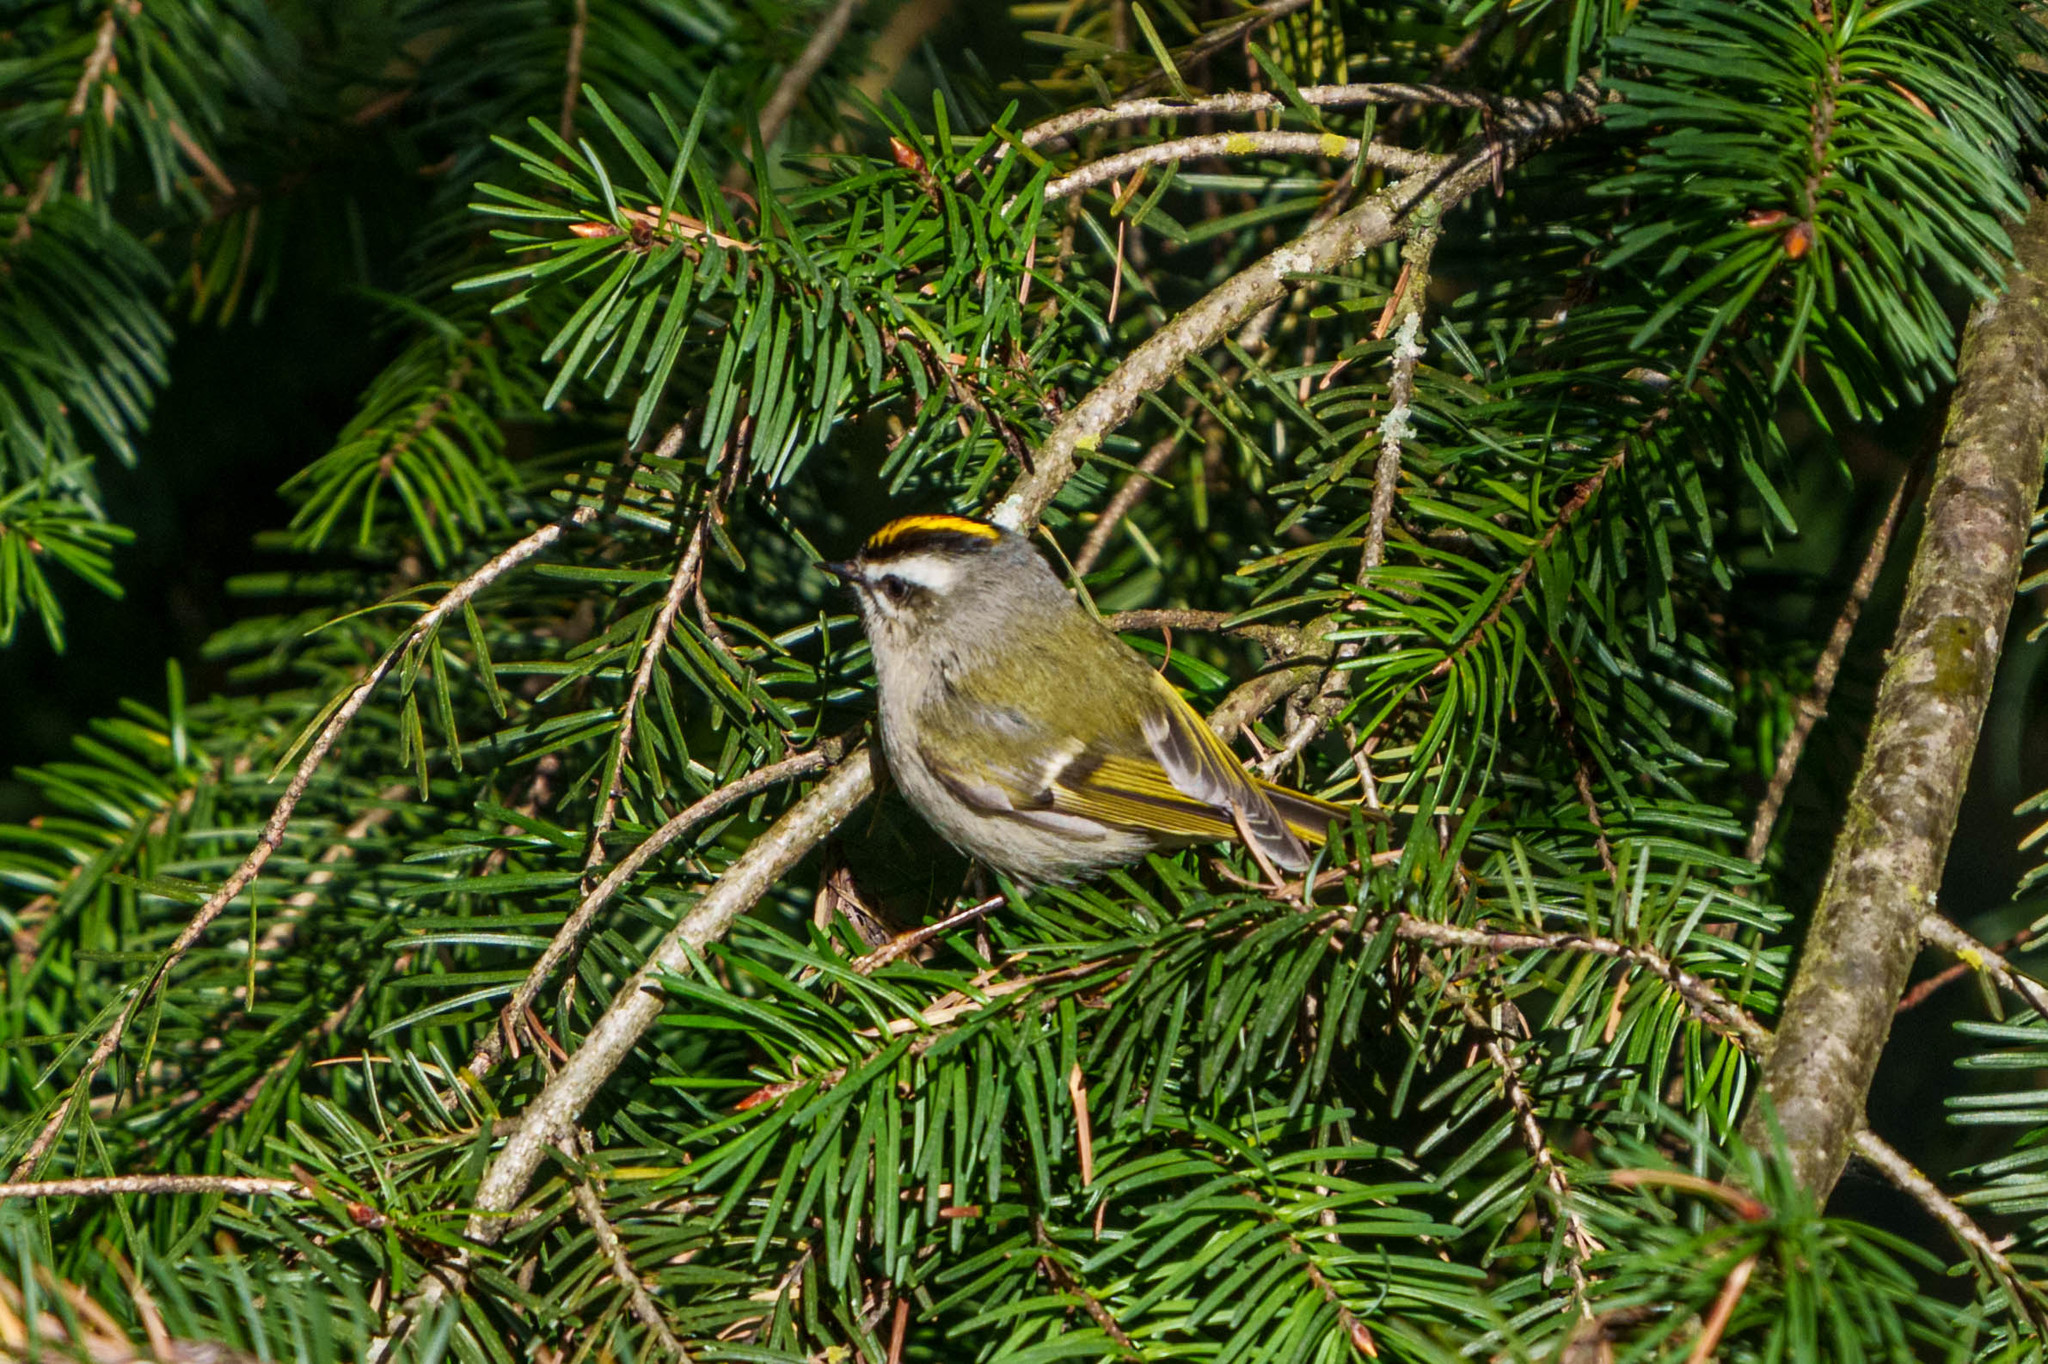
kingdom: Animalia
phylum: Chordata
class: Aves
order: Passeriformes
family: Regulidae
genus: Regulus
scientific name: Regulus satrapa
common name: Golden-crowned kinglet
